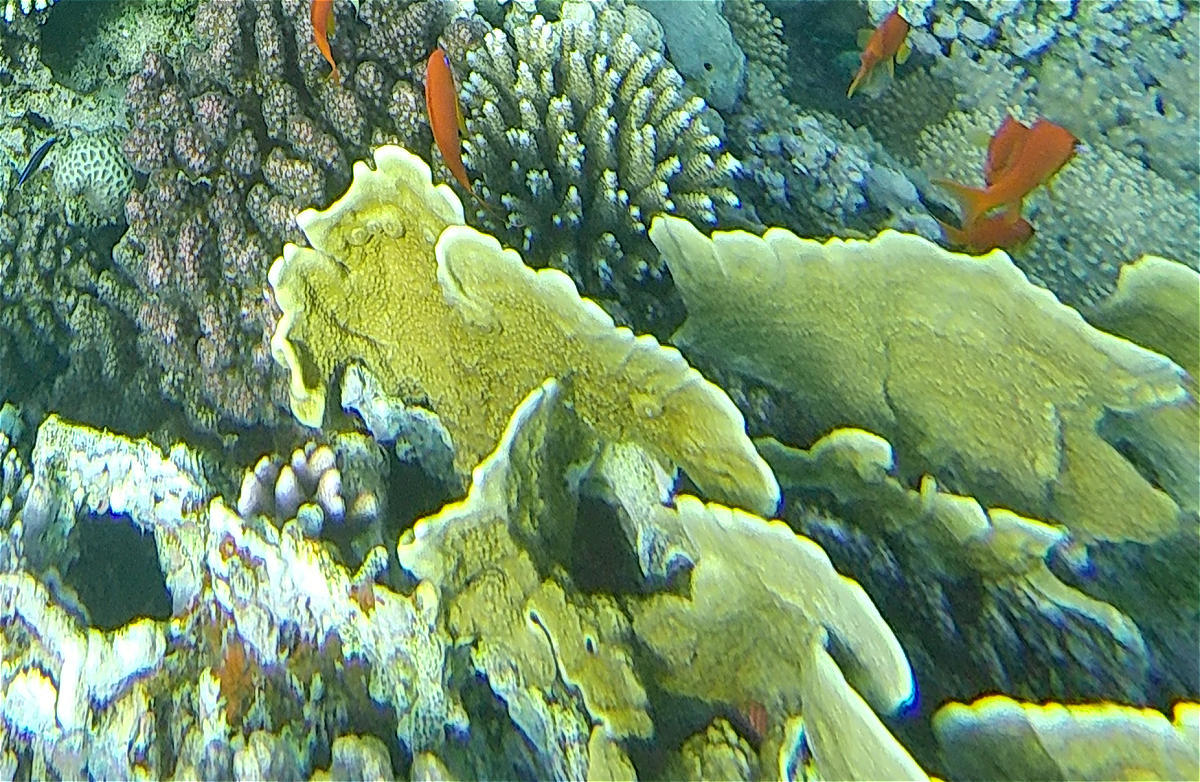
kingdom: Animalia
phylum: Cnidaria
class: Hydrozoa
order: Anthoathecata
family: Milleporidae
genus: Millepora
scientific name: Millepora platyphylla
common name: Sheet fire coral
